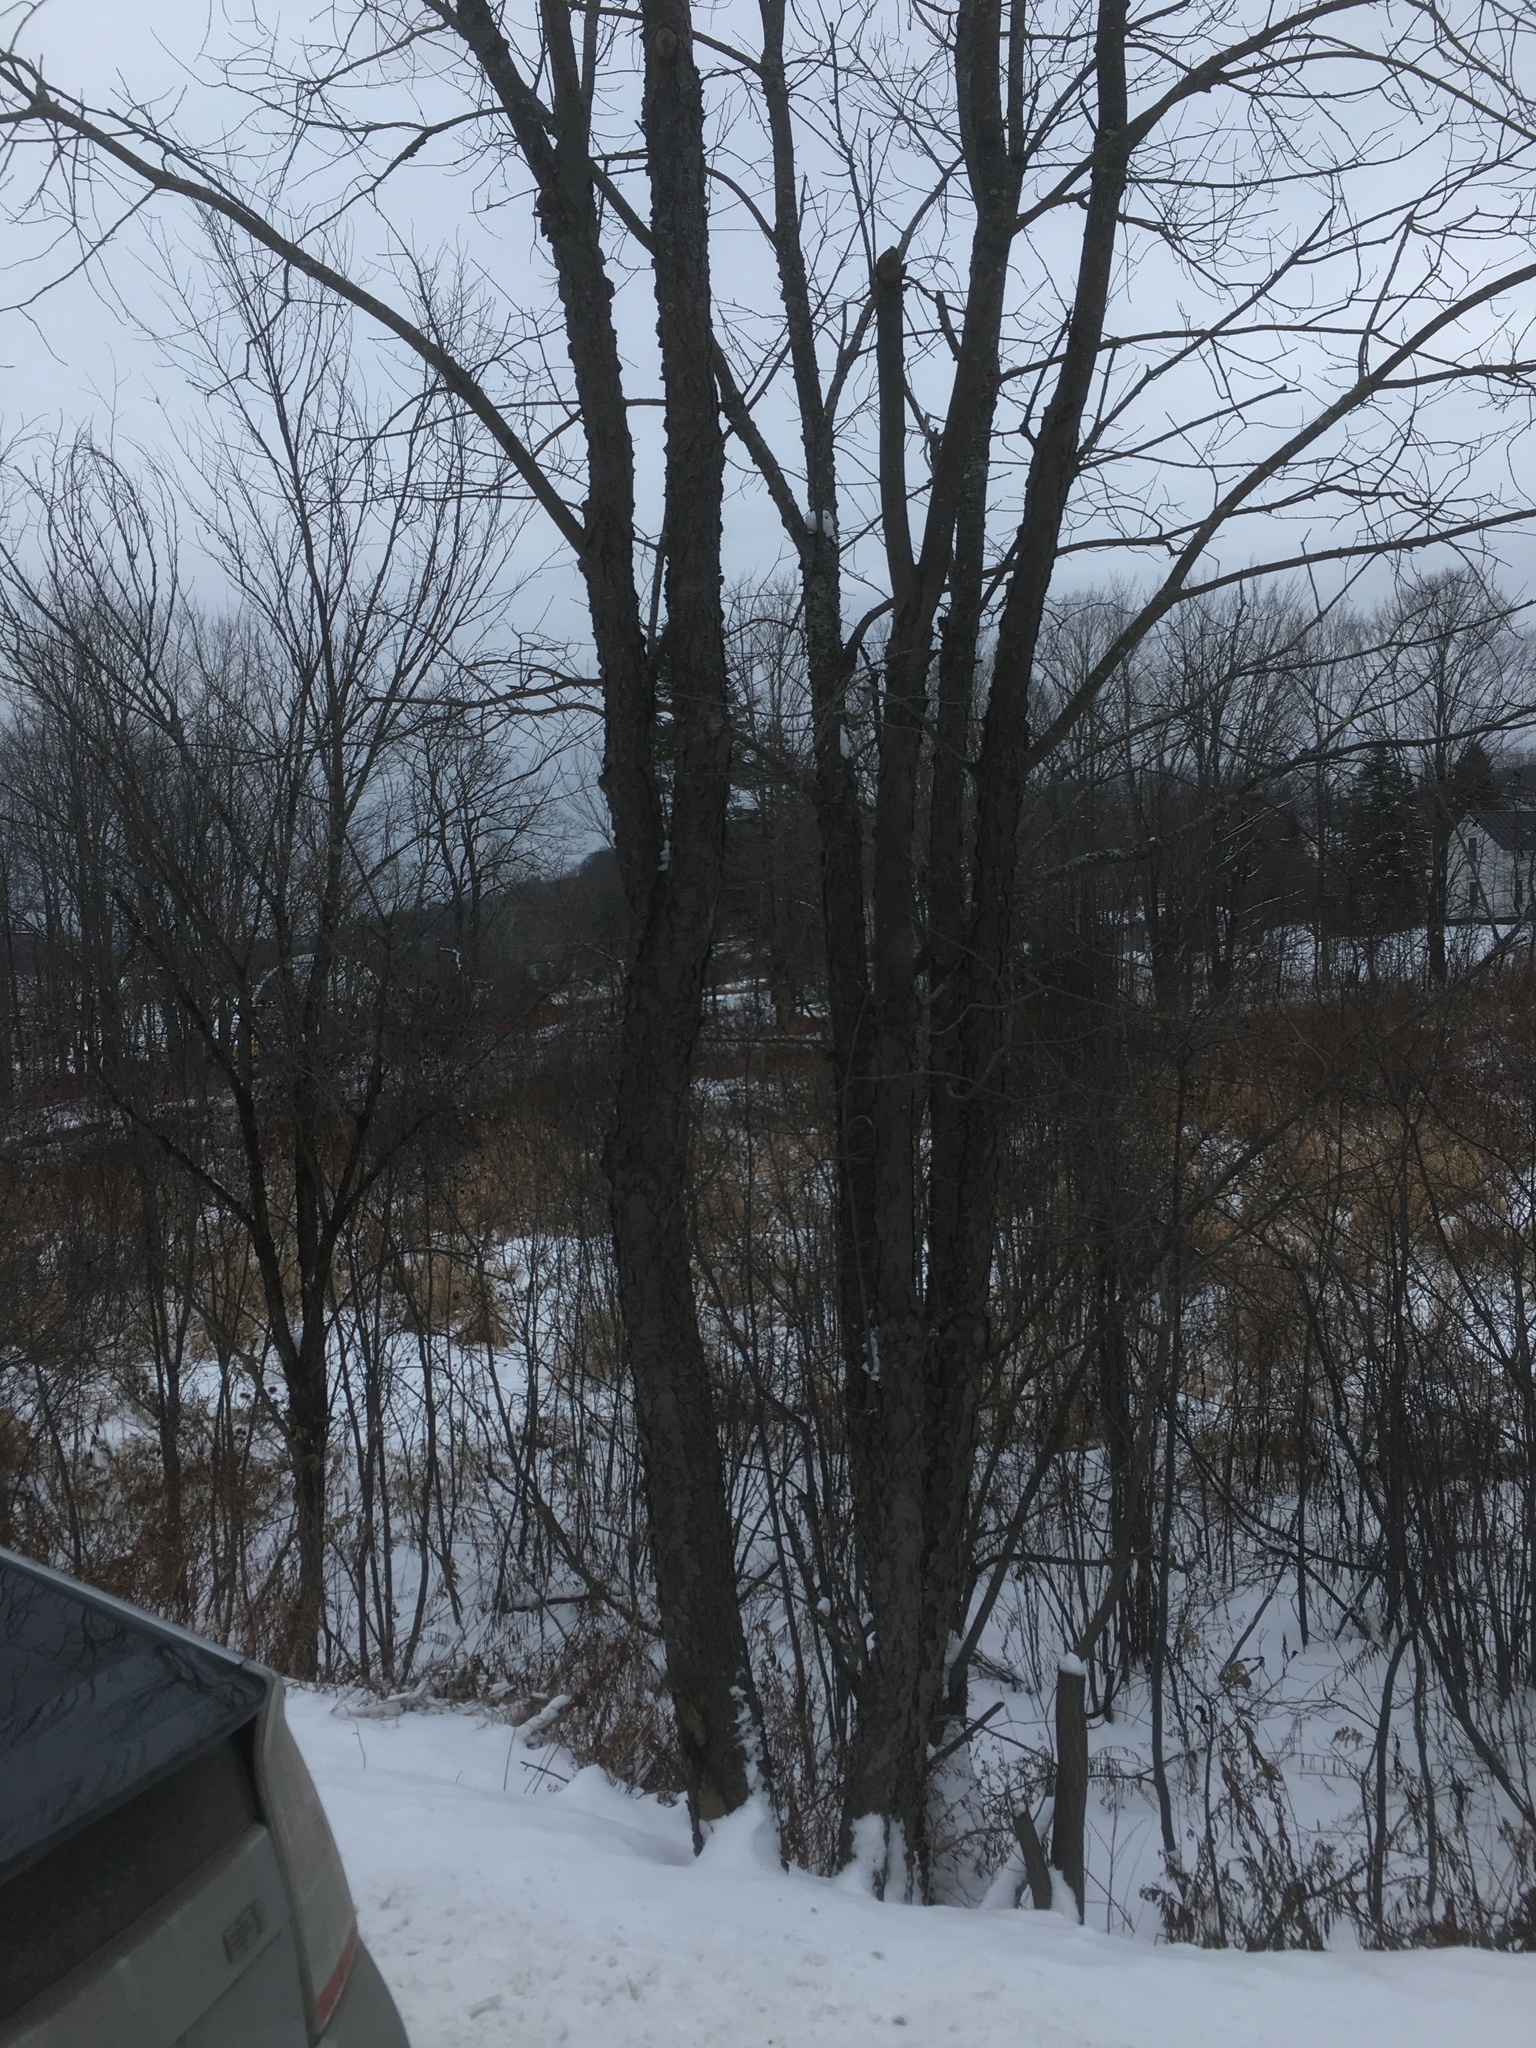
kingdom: Plantae
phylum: Tracheophyta
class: Magnoliopsida
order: Rosales
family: Rosaceae
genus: Prunus
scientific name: Prunus serotina
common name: Black cherry
